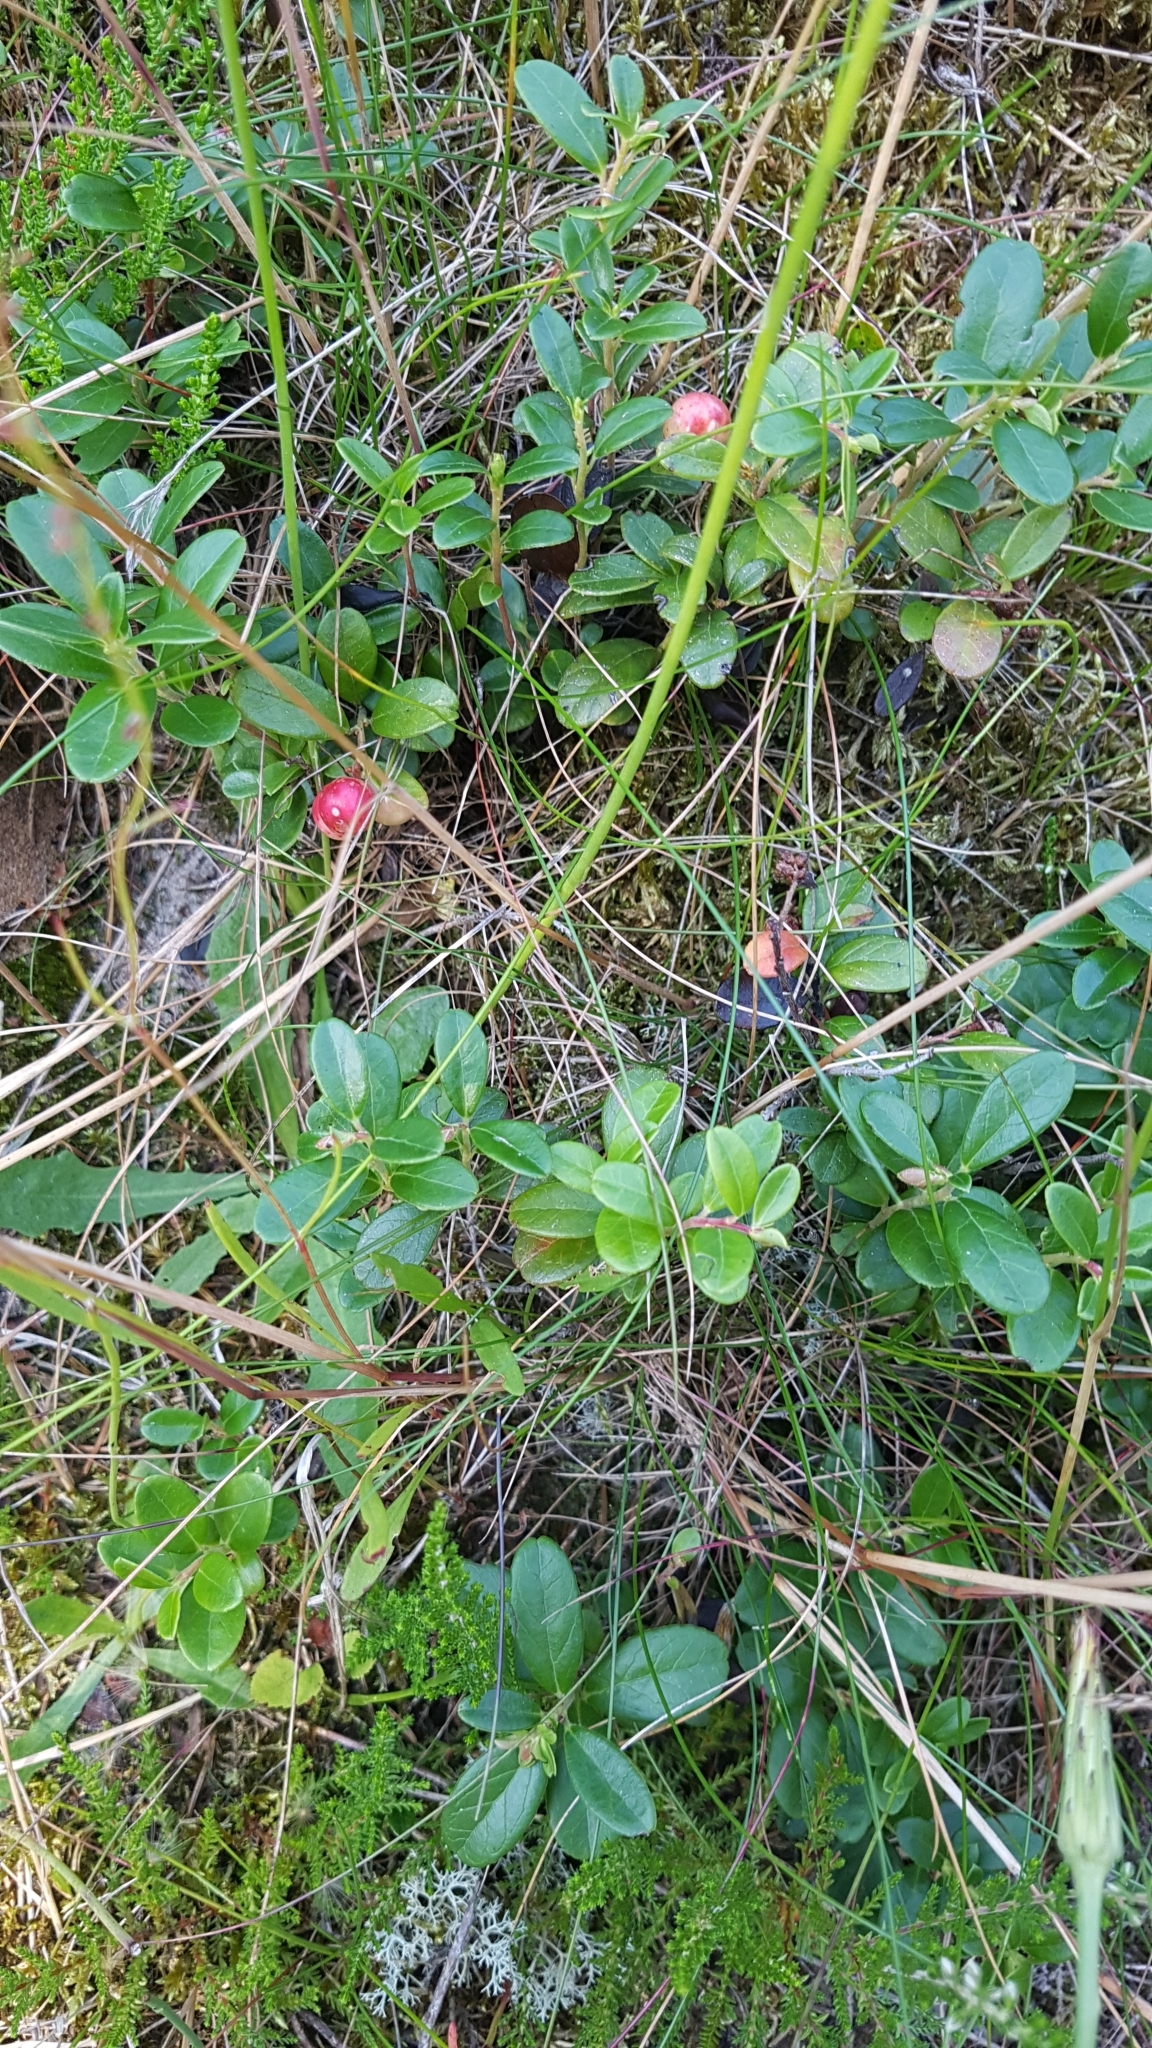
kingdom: Plantae
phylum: Tracheophyta
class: Magnoliopsida
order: Ericales
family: Ericaceae
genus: Vaccinium
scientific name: Vaccinium vitis-idaea
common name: Cowberry
